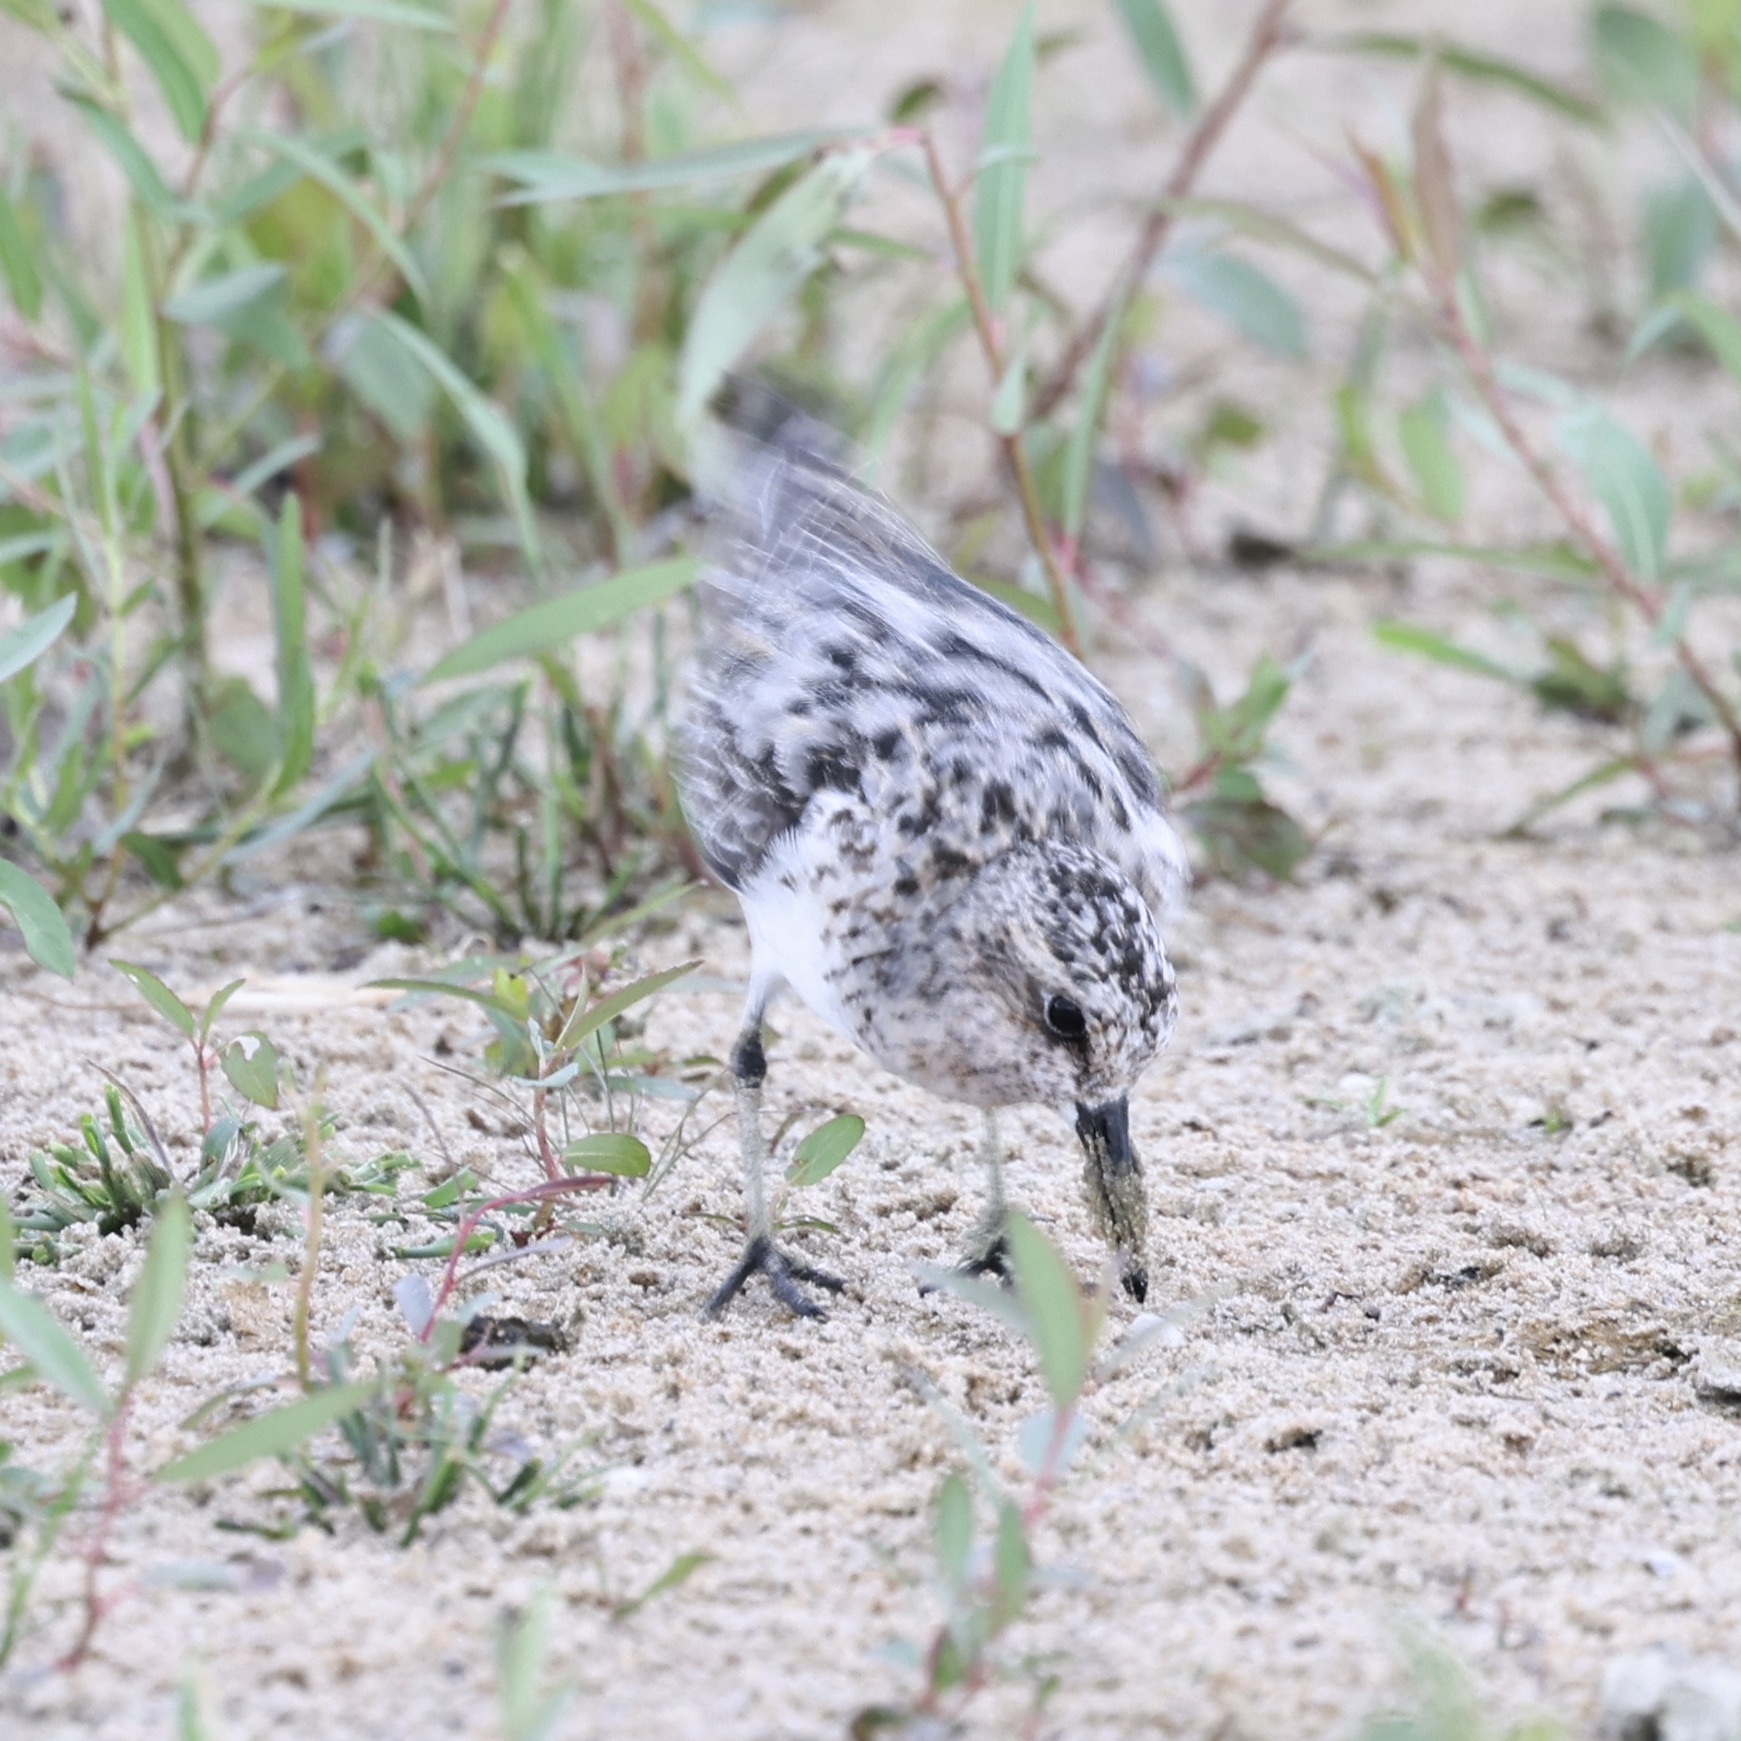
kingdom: Animalia
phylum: Chordata
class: Aves
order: Charadriiformes
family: Scolopacidae
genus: Calidris
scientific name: Calidris alba
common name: Sanderling
